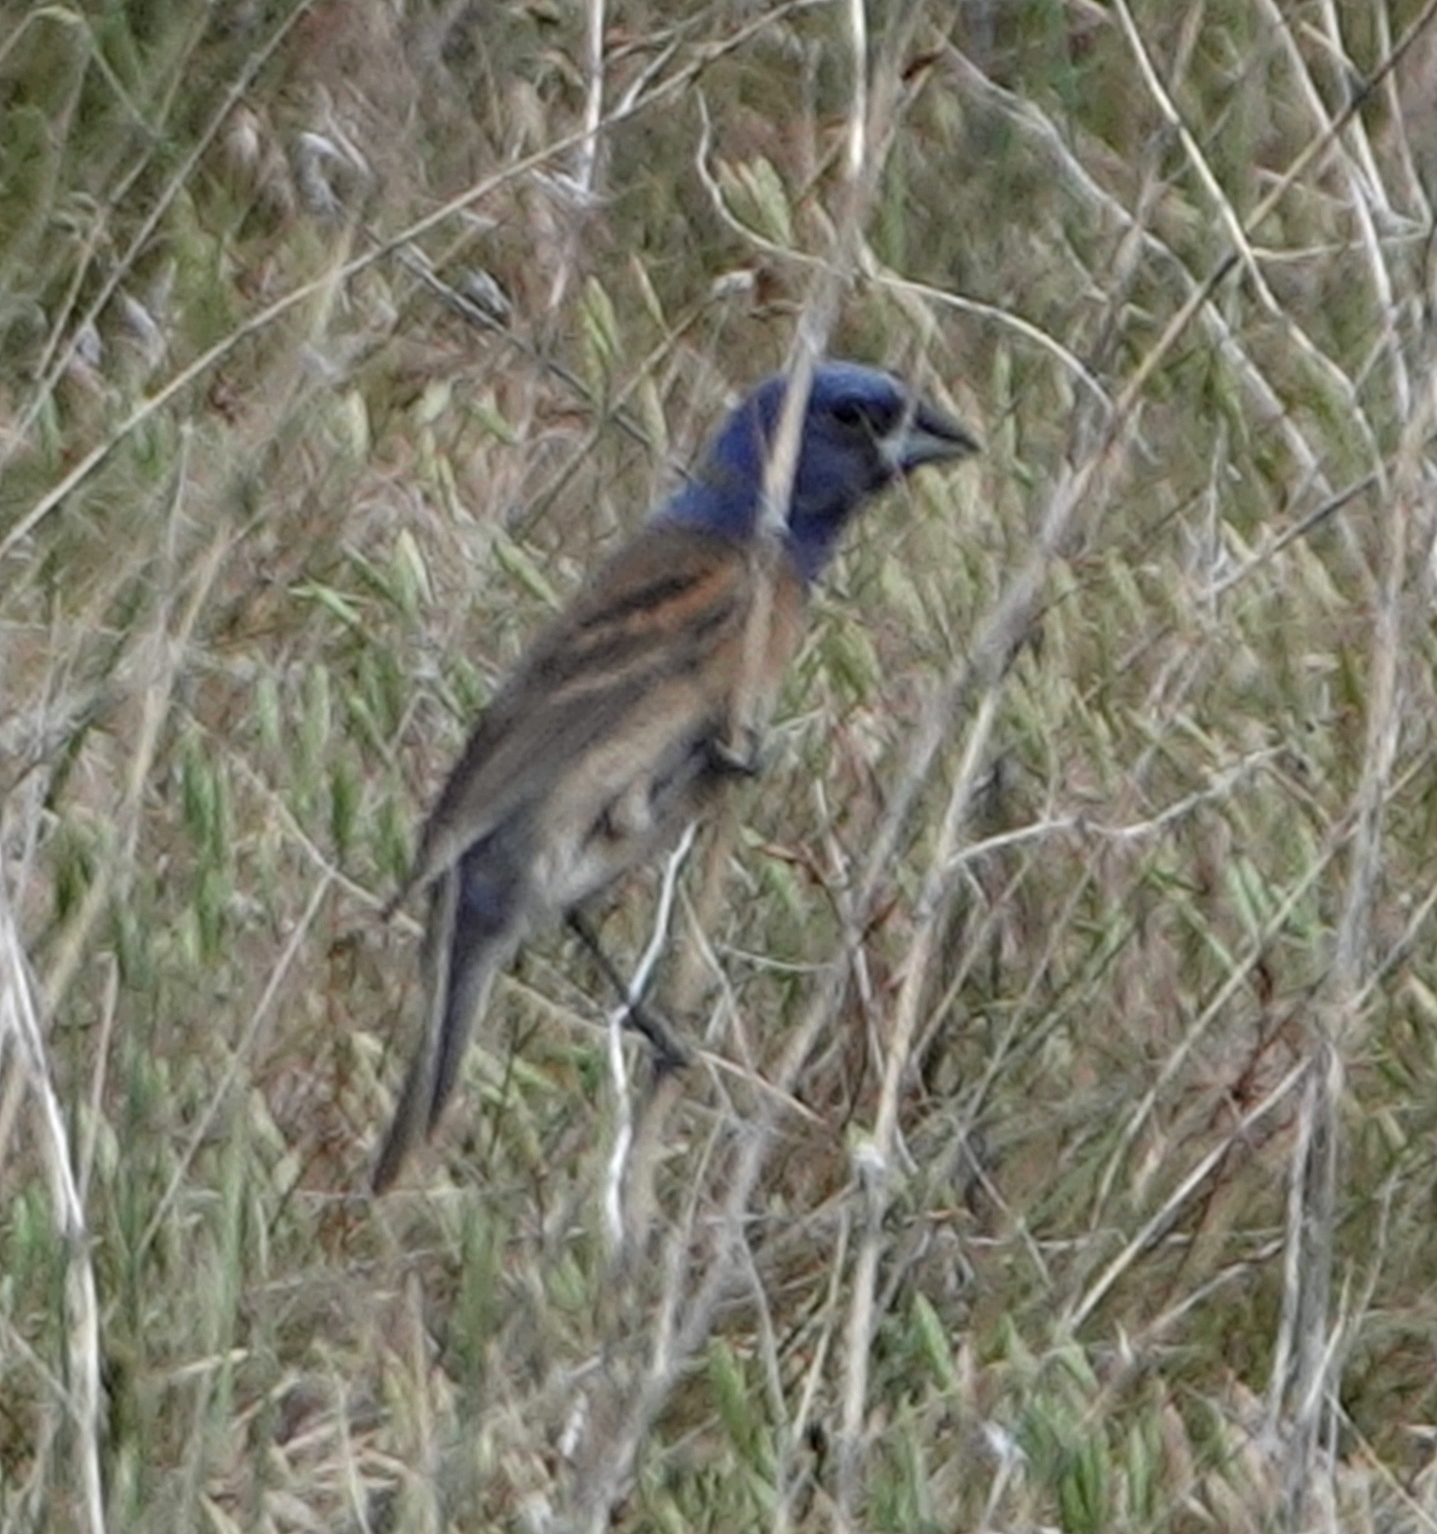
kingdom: Animalia
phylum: Chordata
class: Aves
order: Passeriformes
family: Cardinalidae
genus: Passerina
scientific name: Passerina caerulea
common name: Blue grosbeak
